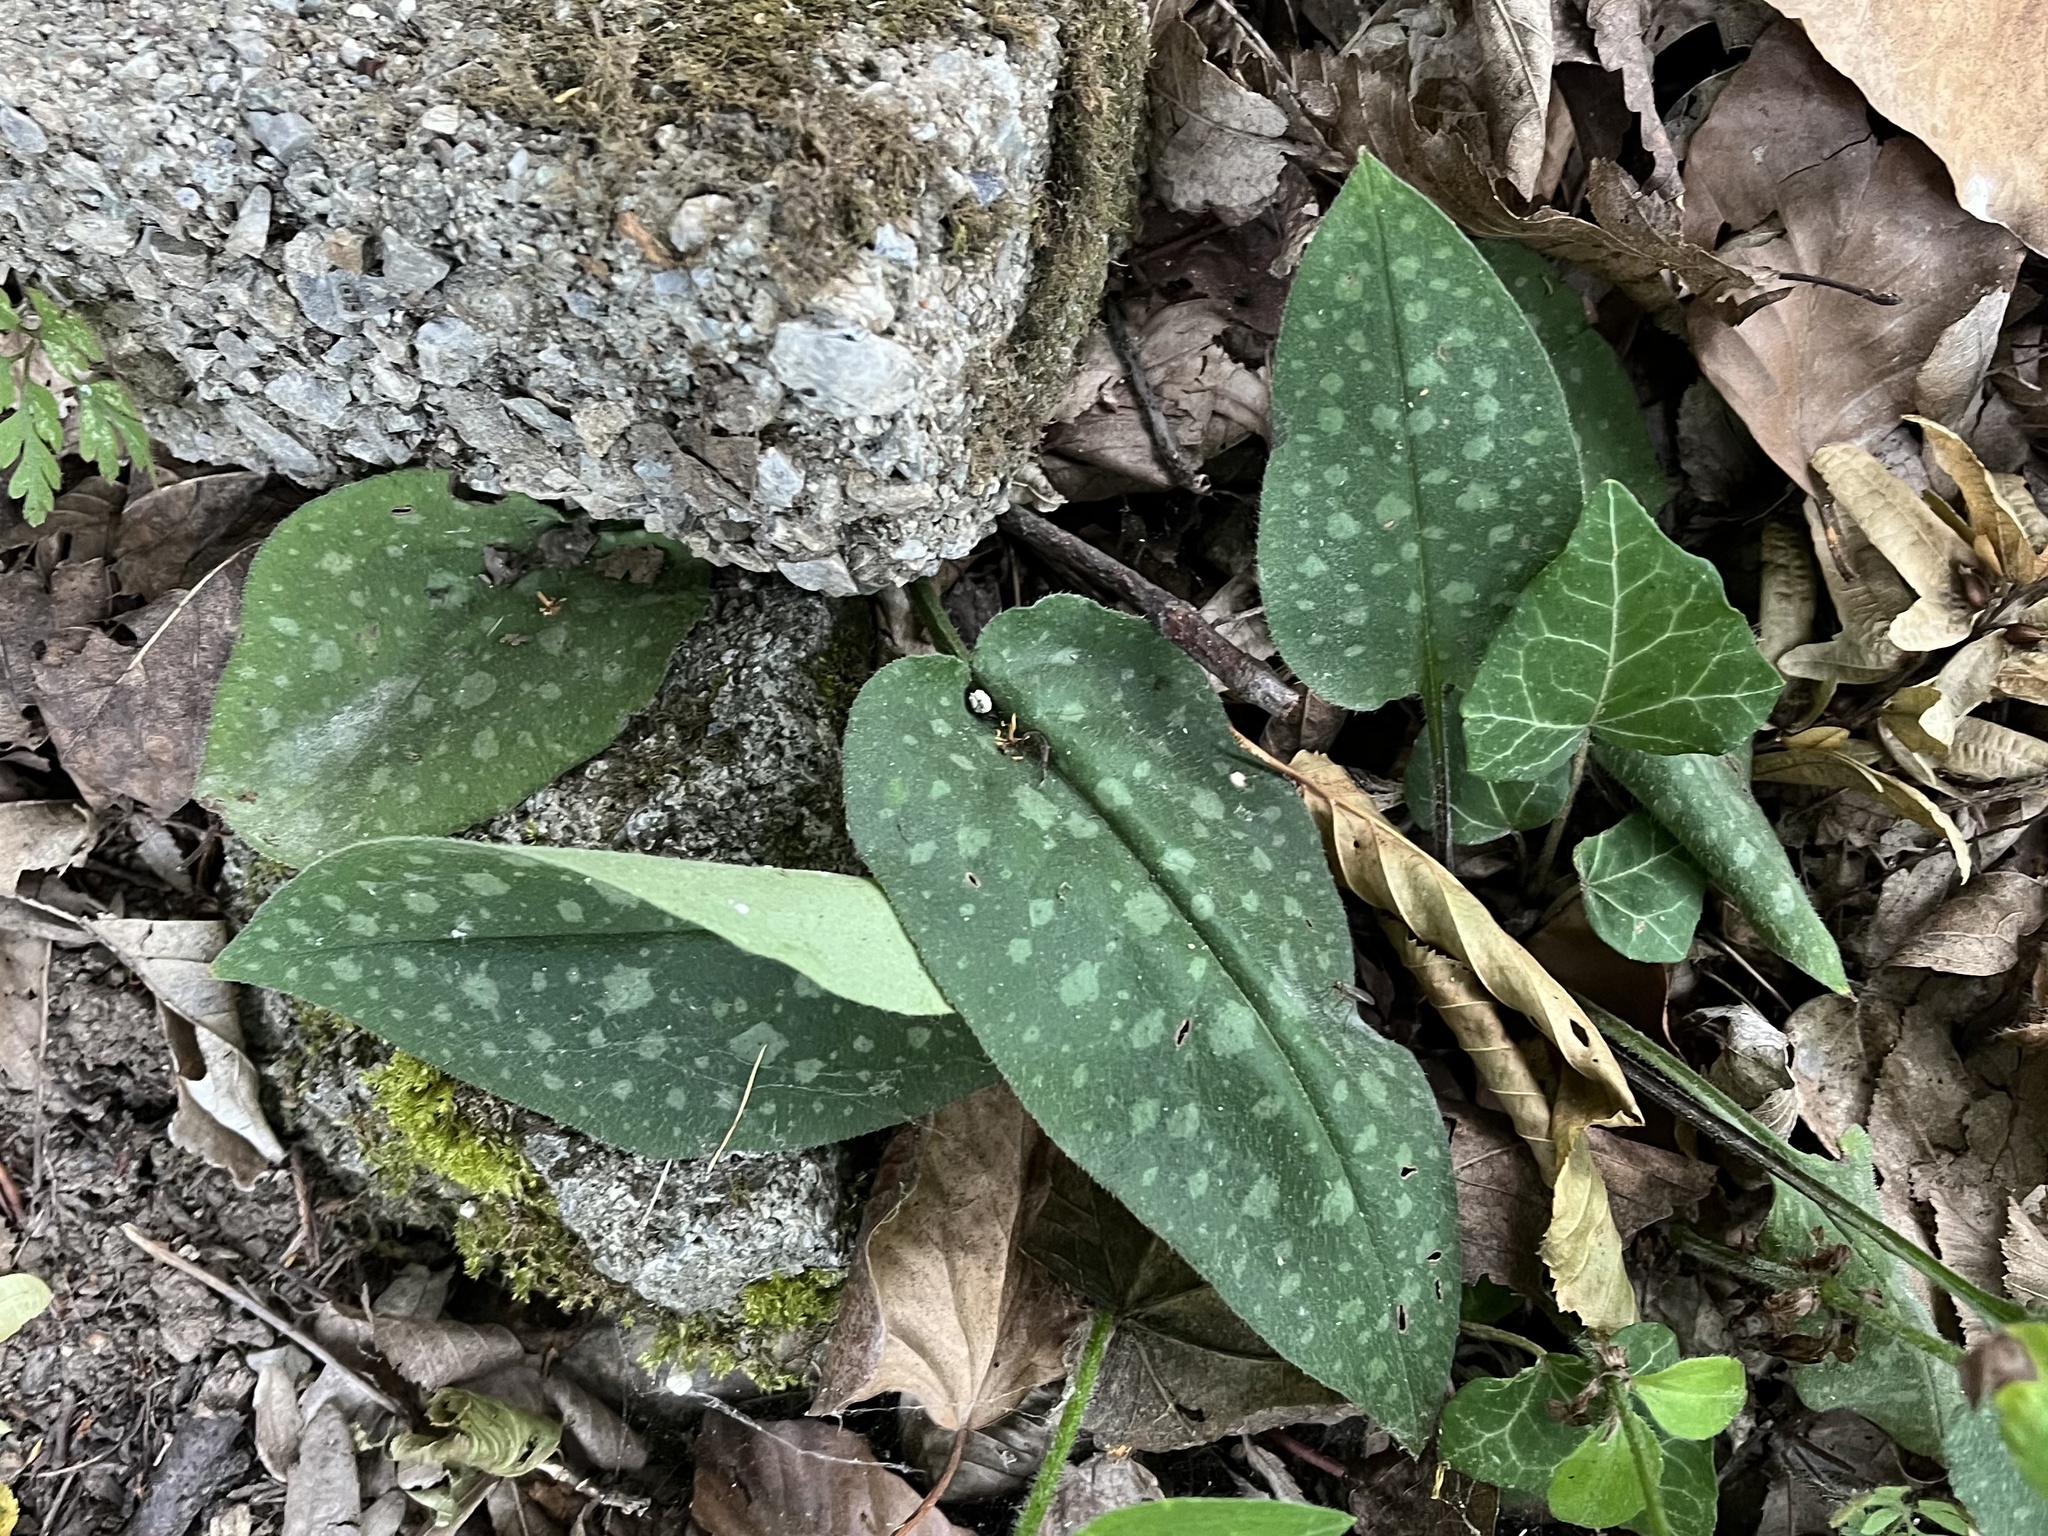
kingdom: Plantae
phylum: Tracheophyta
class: Magnoliopsida
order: Boraginales
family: Boraginaceae
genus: Pulmonaria
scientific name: Pulmonaria officinalis
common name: Lungwort
